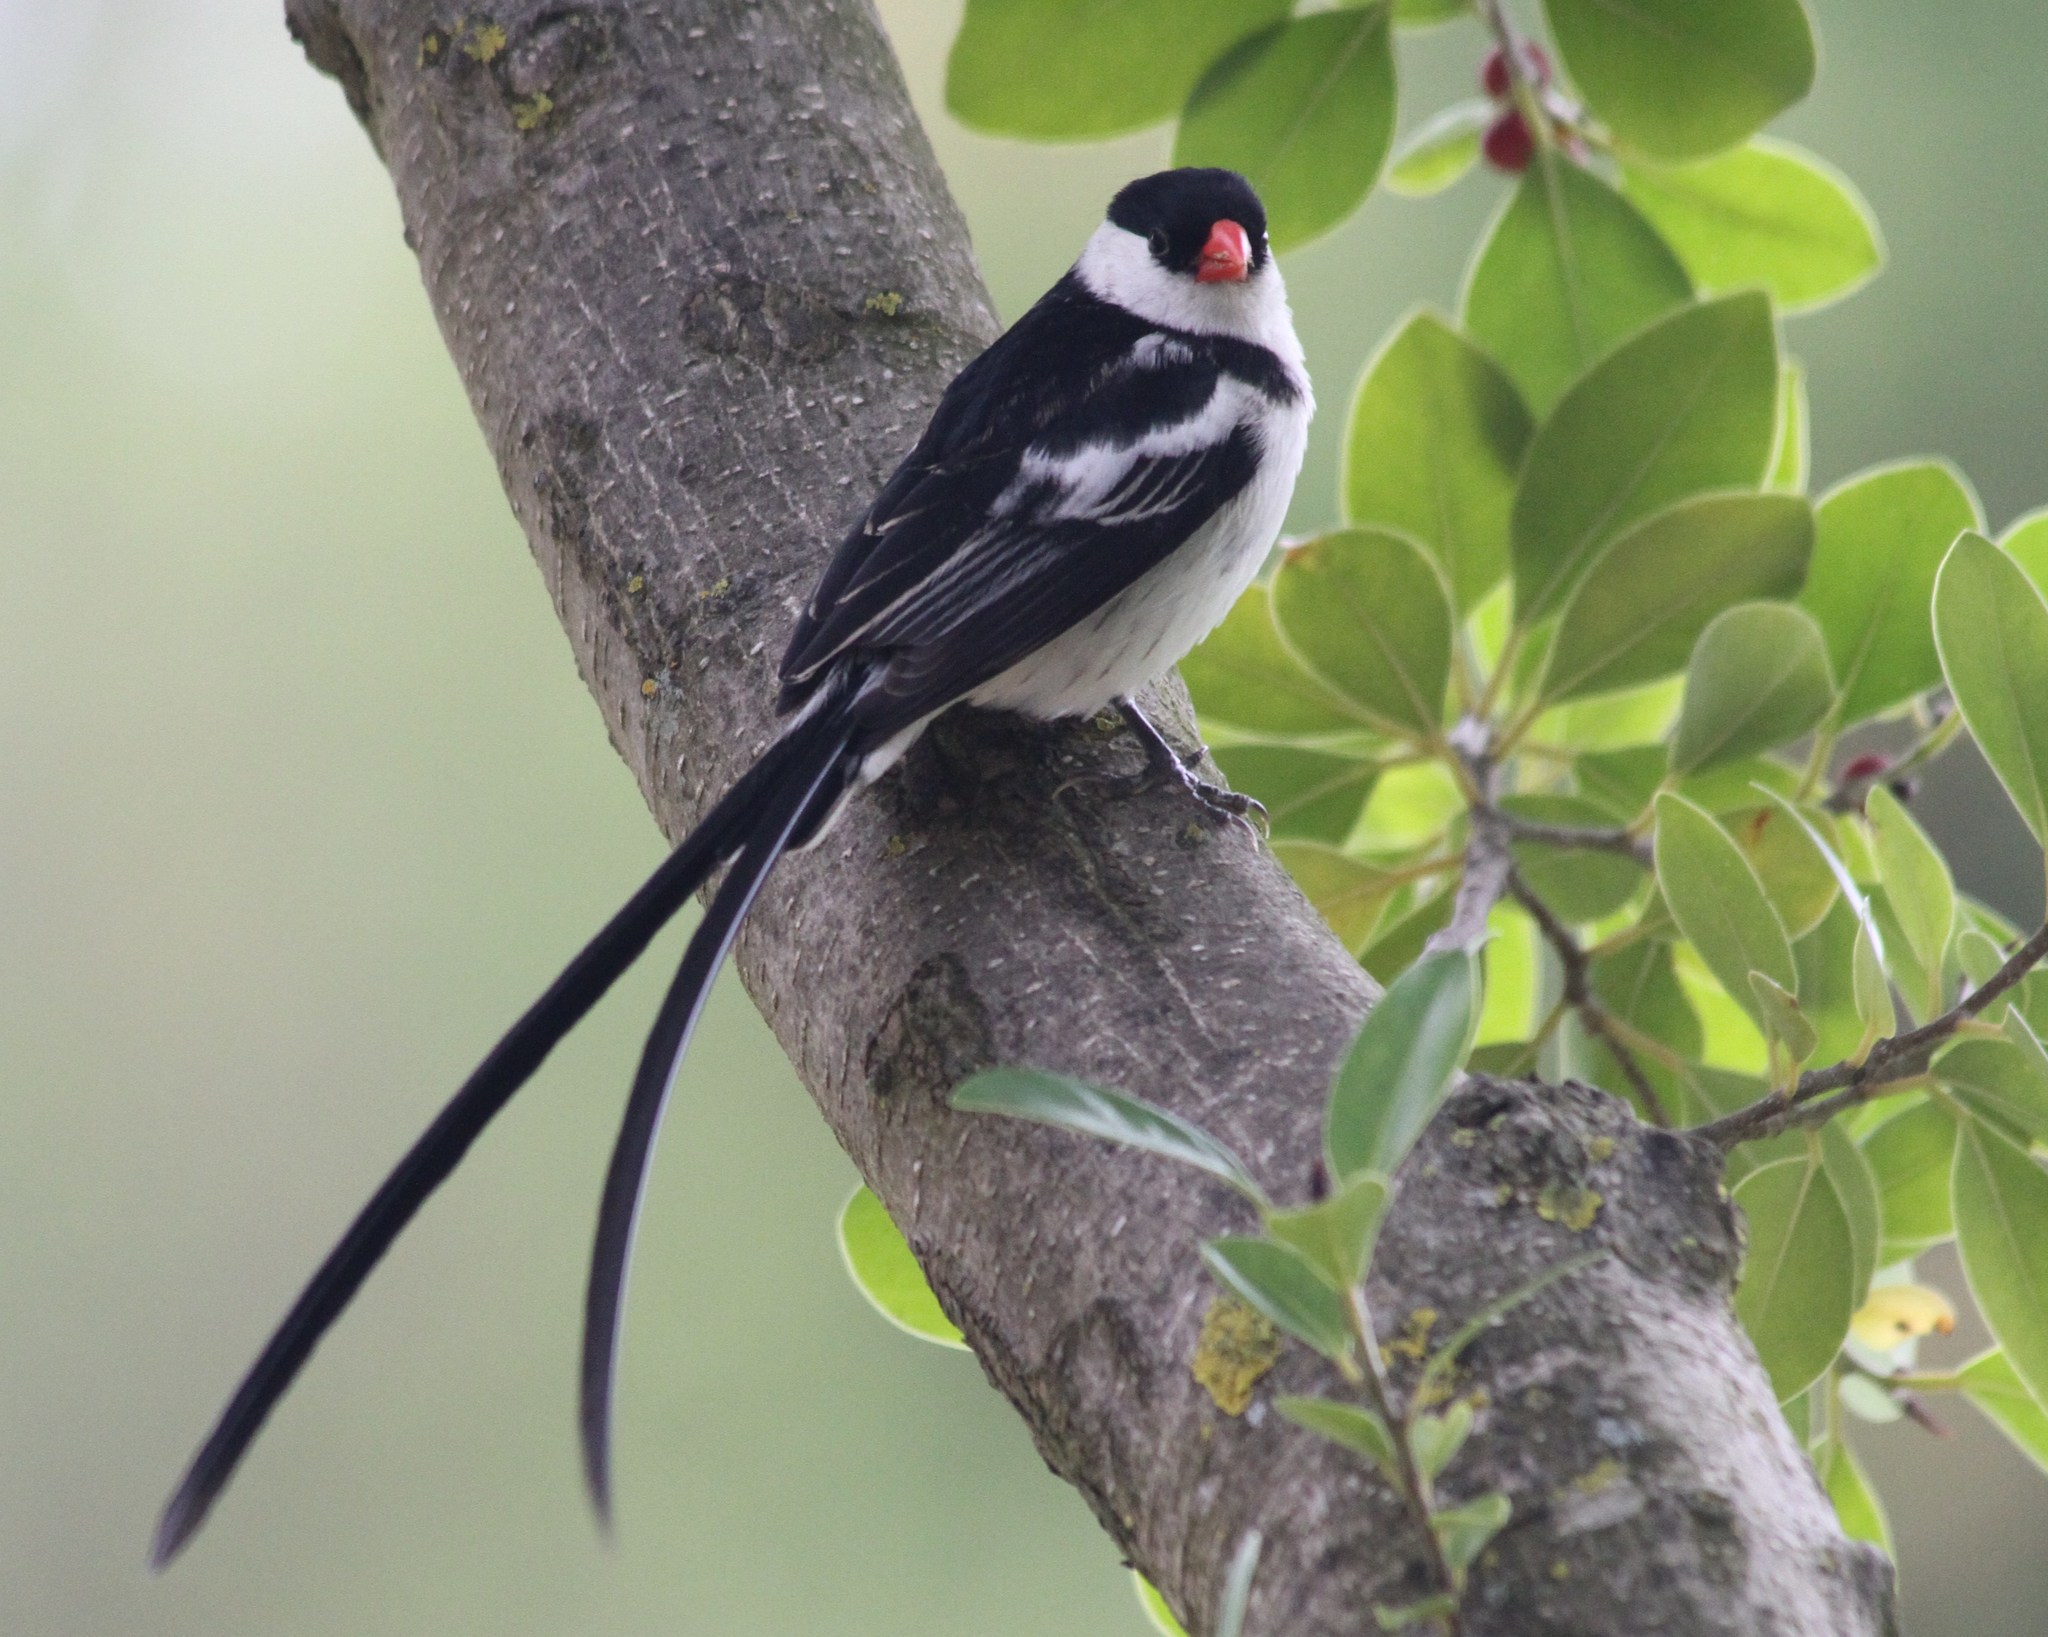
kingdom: Animalia
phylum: Chordata
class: Aves
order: Passeriformes
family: Viduidae
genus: Vidua
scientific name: Vidua macroura
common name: Pin-tailed whydah
